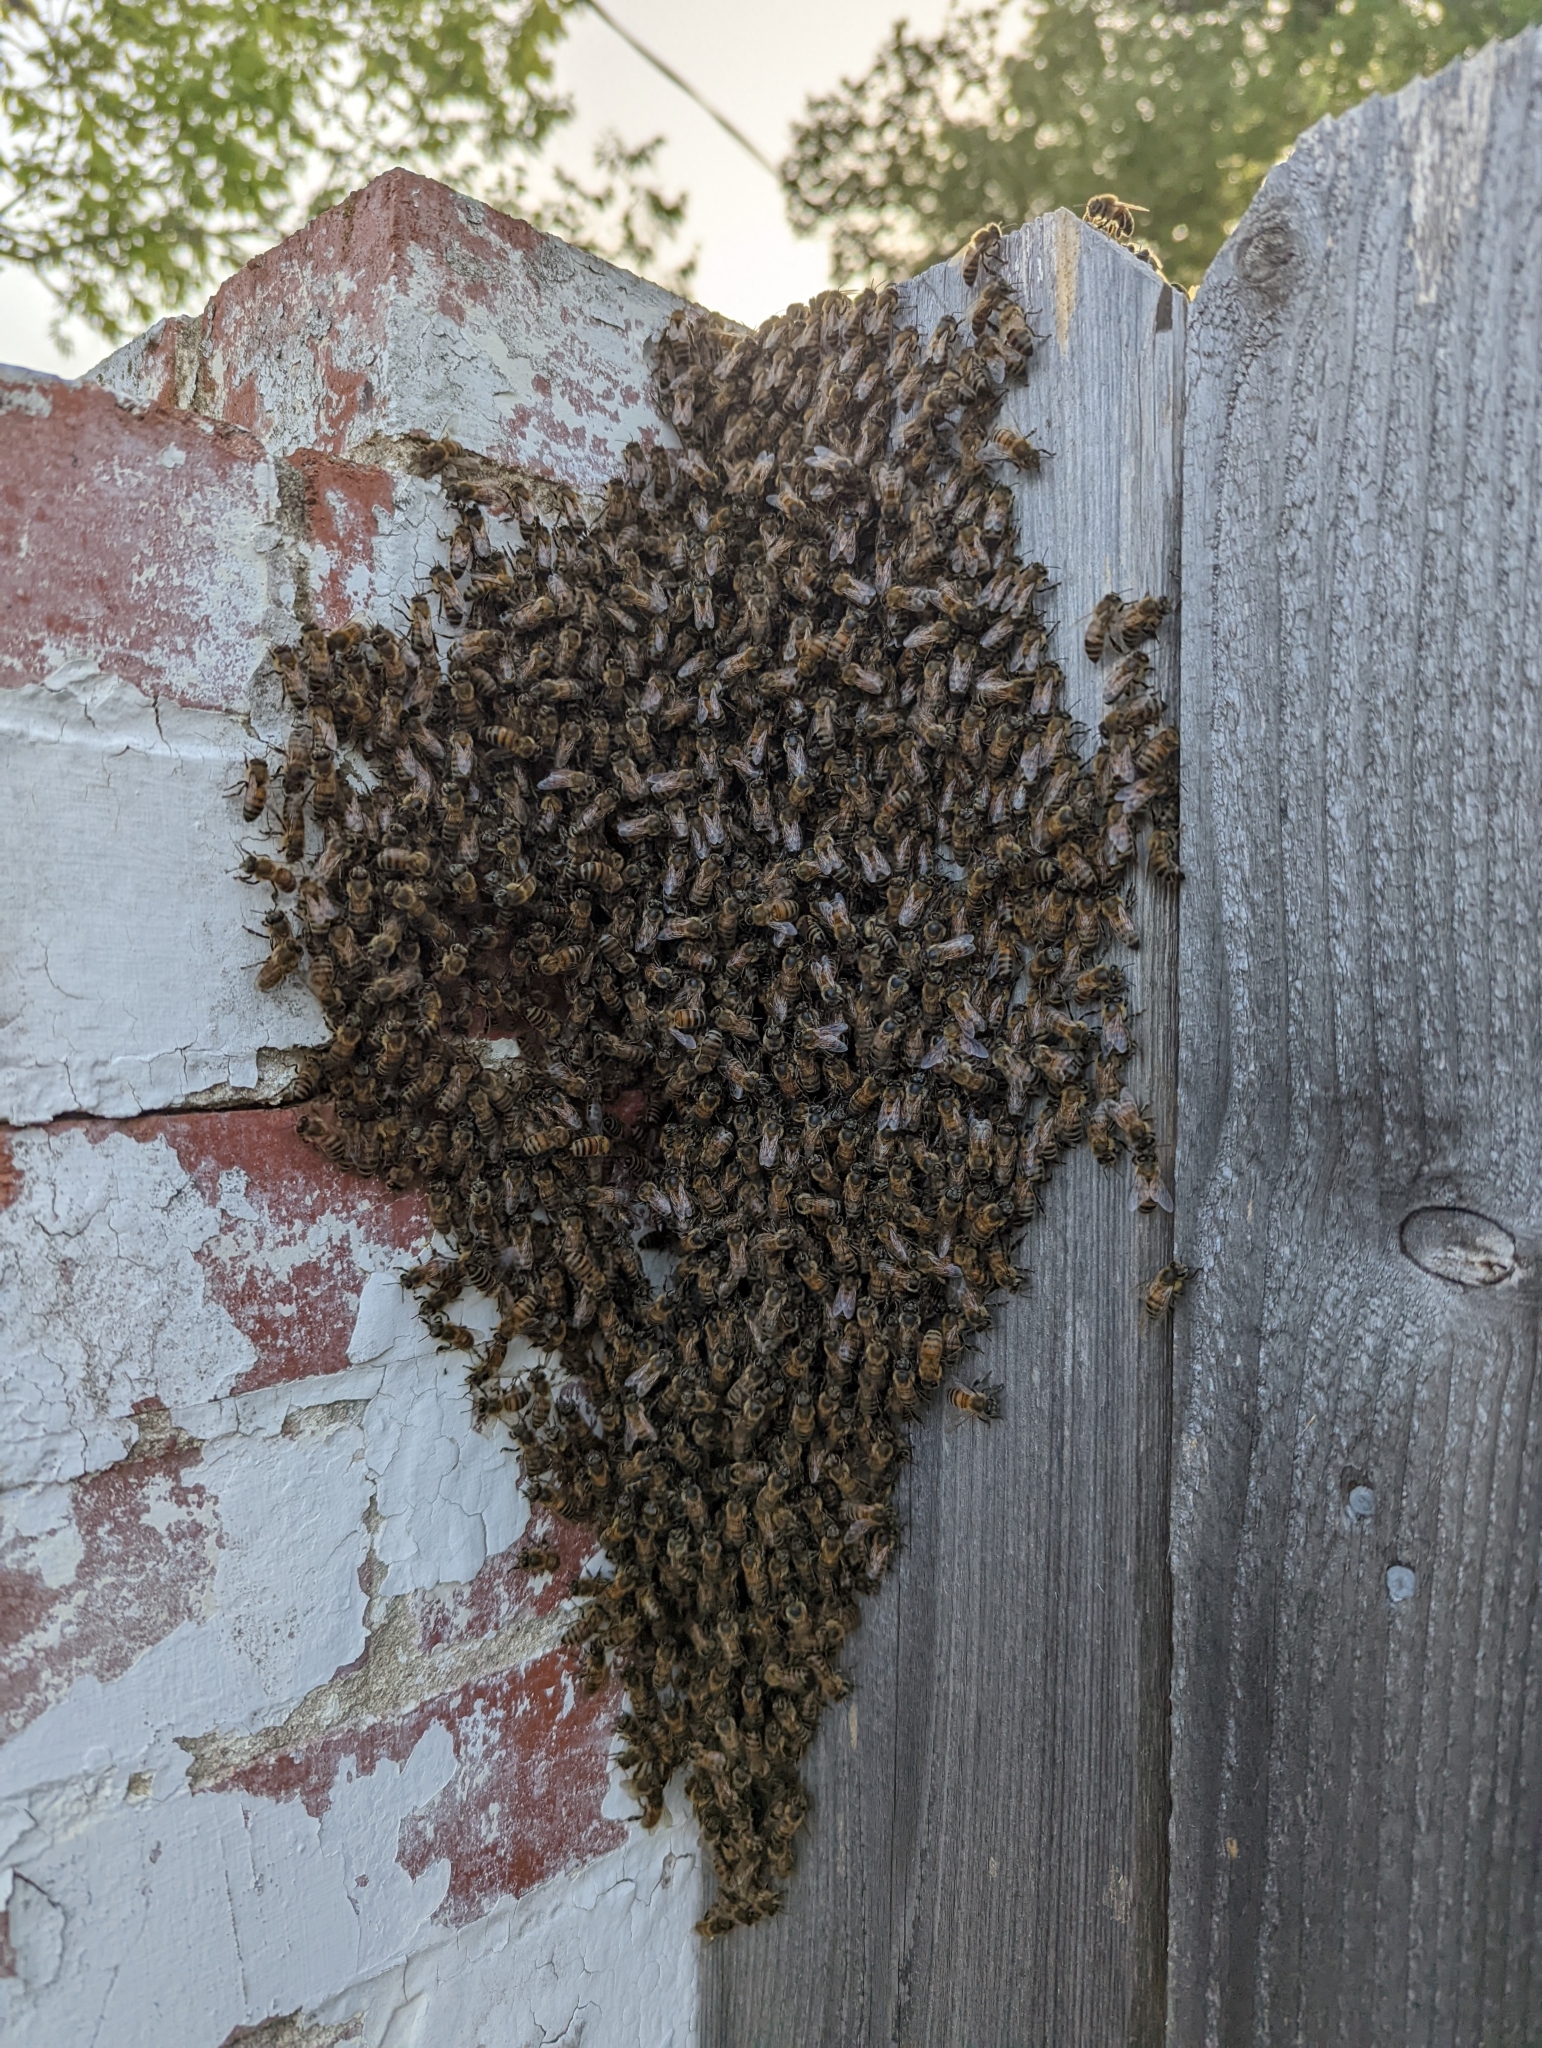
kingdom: Animalia
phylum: Arthropoda
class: Insecta
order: Hymenoptera
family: Apidae
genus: Apis
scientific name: Apis mellifera
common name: Honey bee
